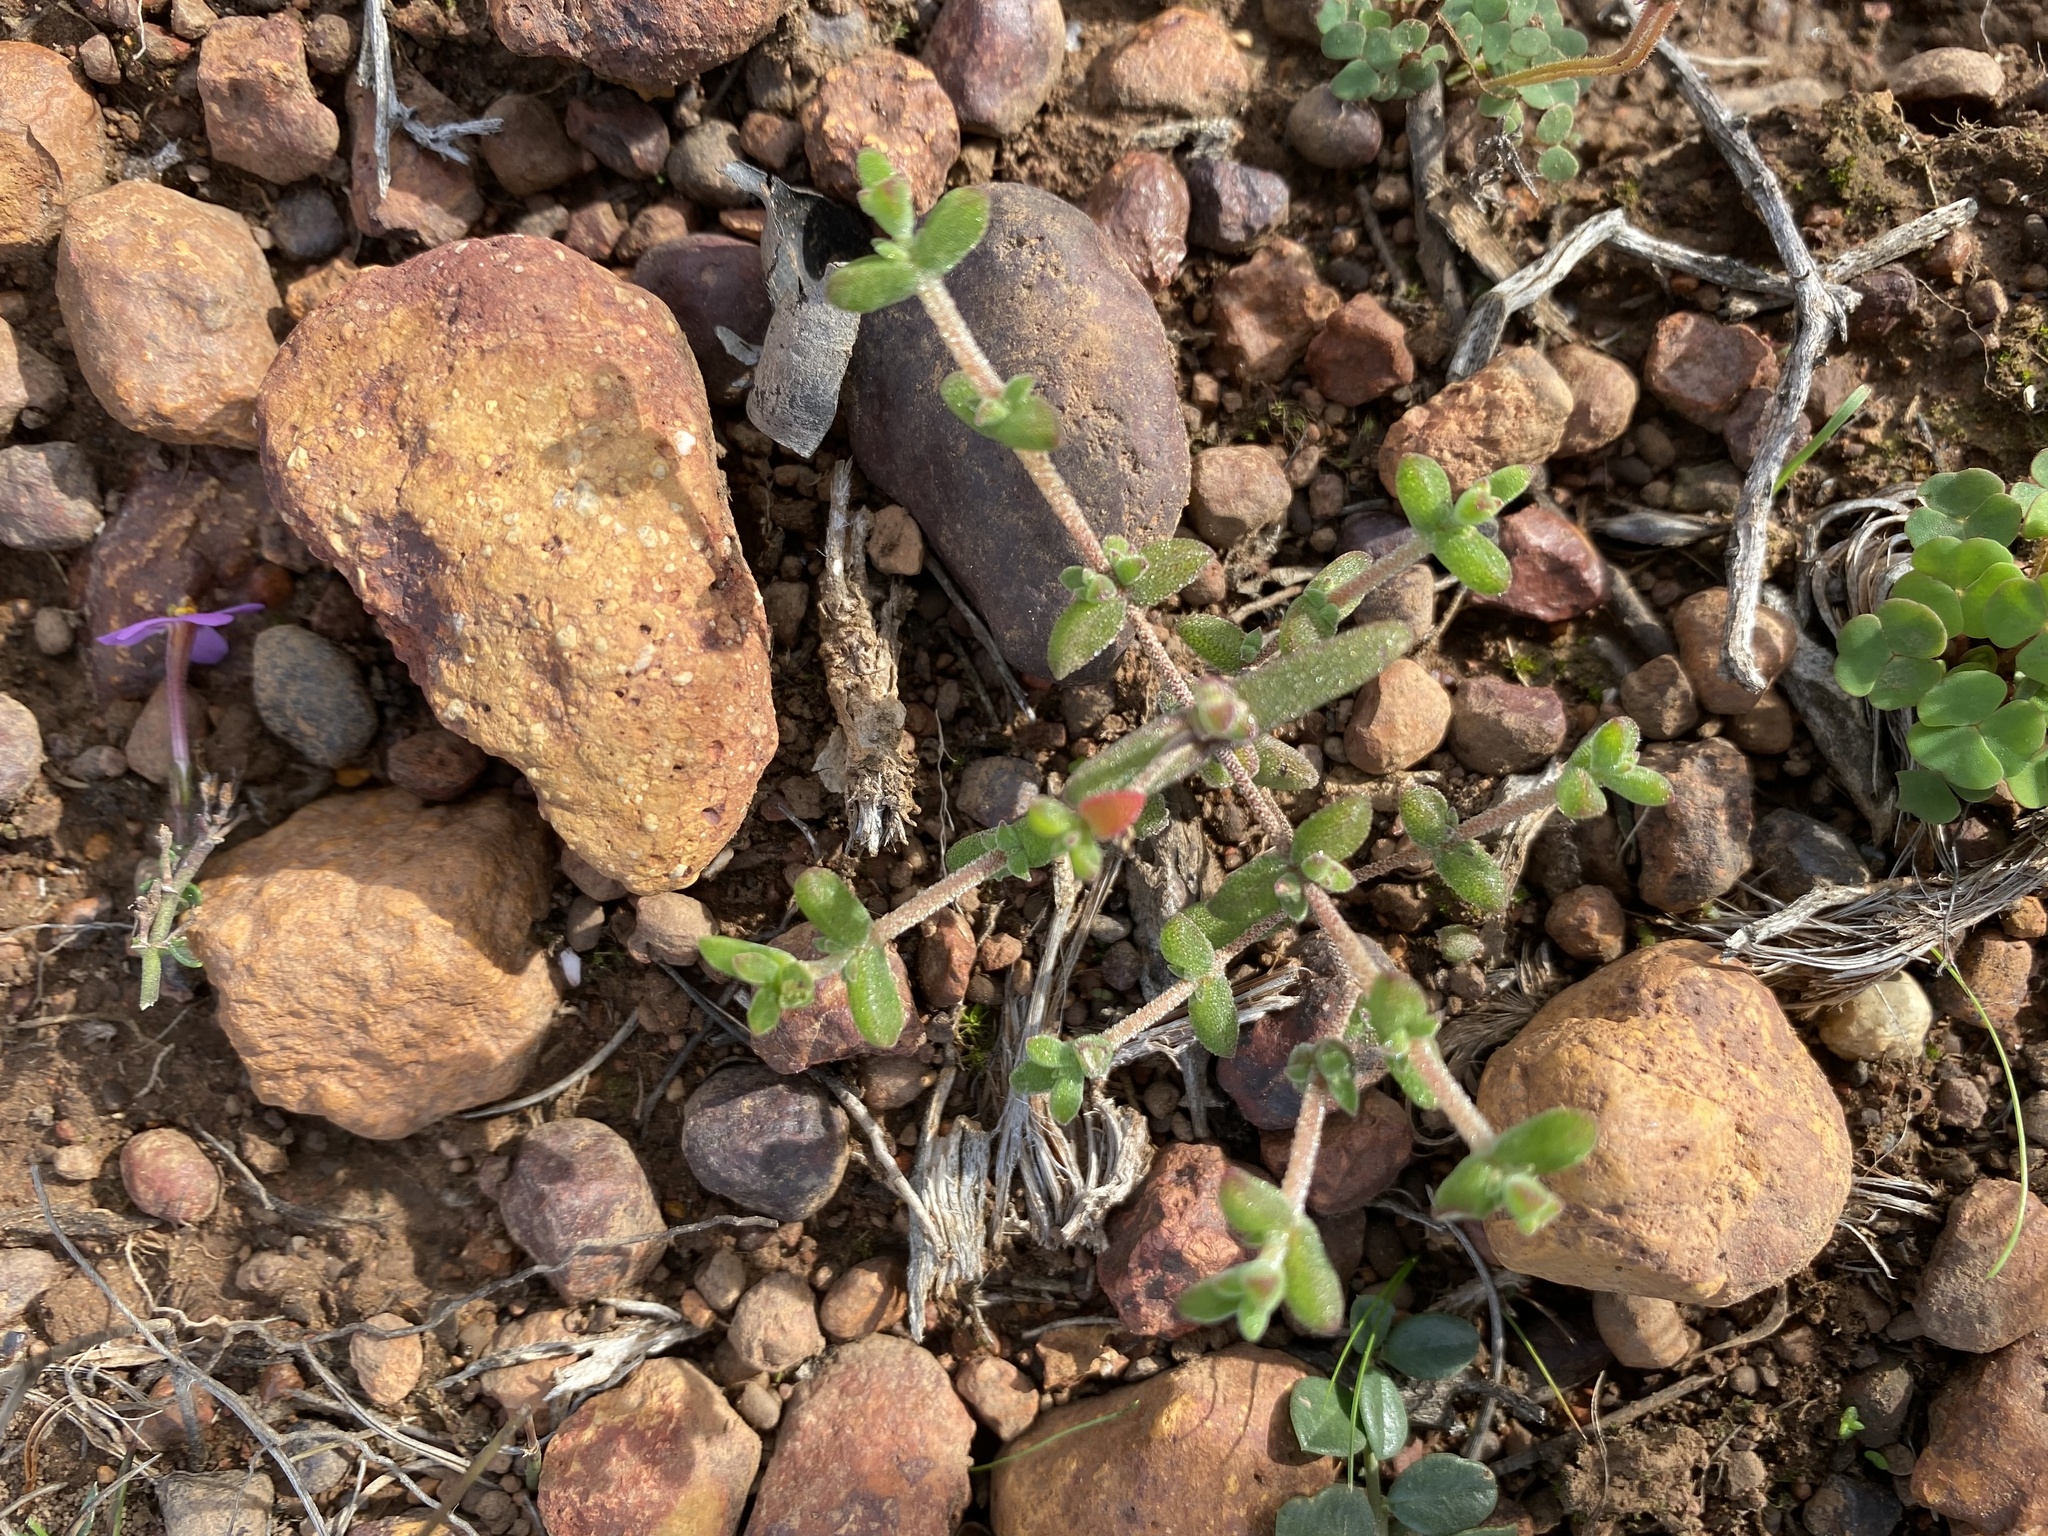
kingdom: Plantae
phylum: Tracheophyta
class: Magnoliopsida
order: Caryophyllales
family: Aizoaceae
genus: Drosanthemum
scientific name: Drosanthemum parvifolium
